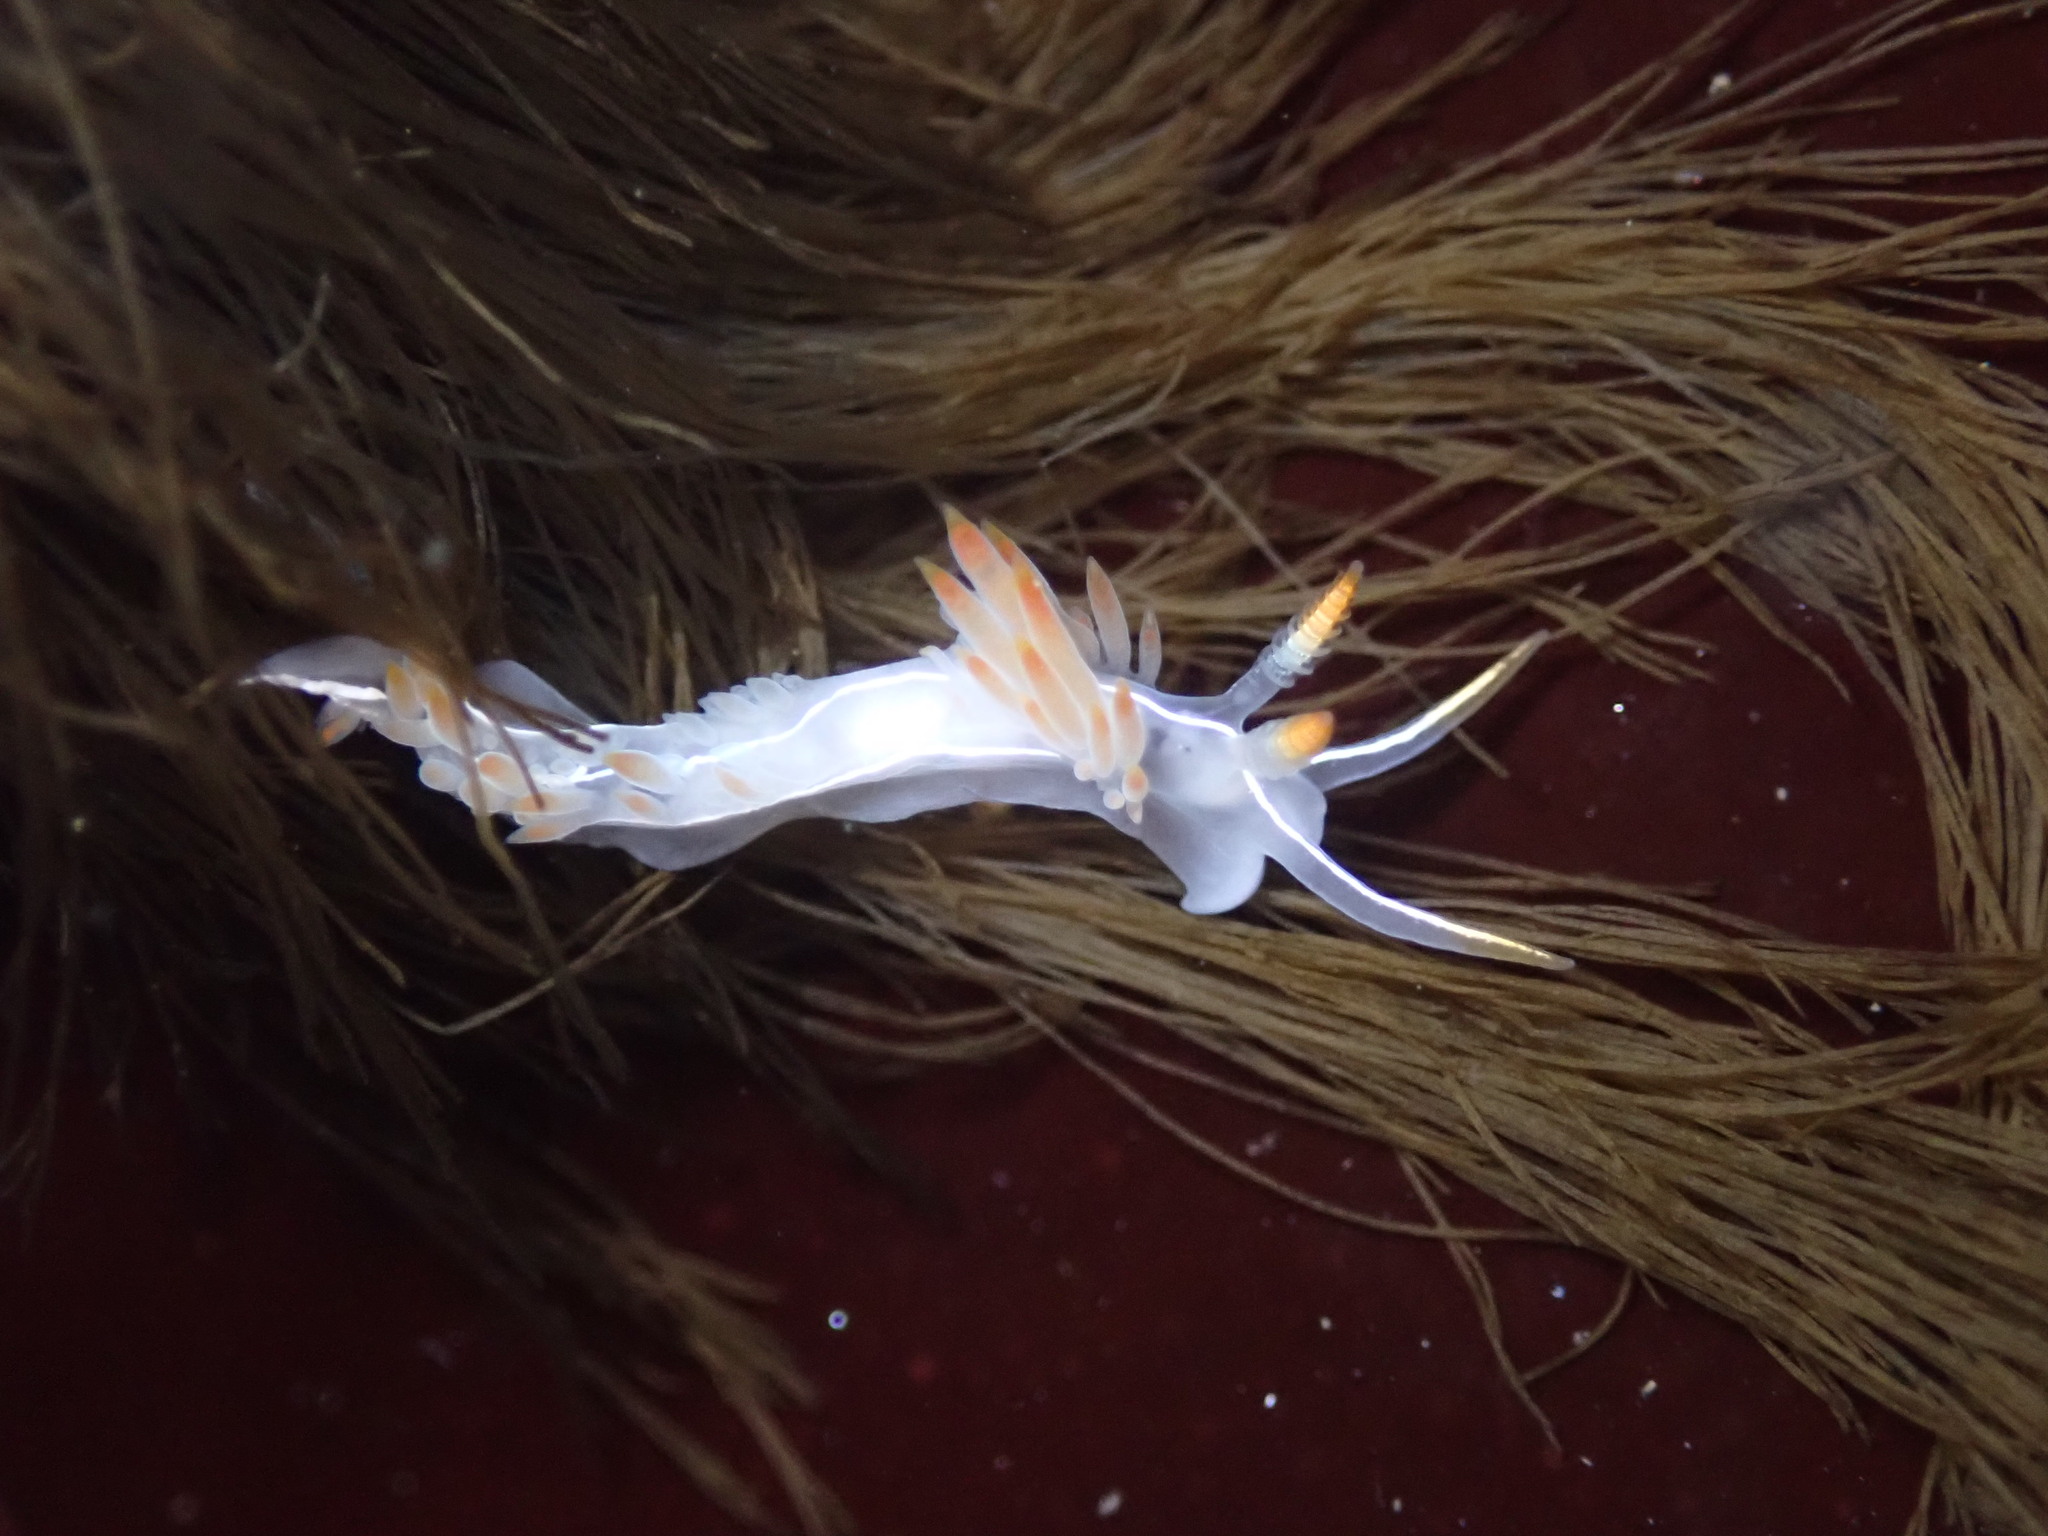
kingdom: Animalia
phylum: Mollusca
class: Gastropoda
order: Nudibranchia
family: Coryphellidae
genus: Coryphella
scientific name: Coryphella trilineata
